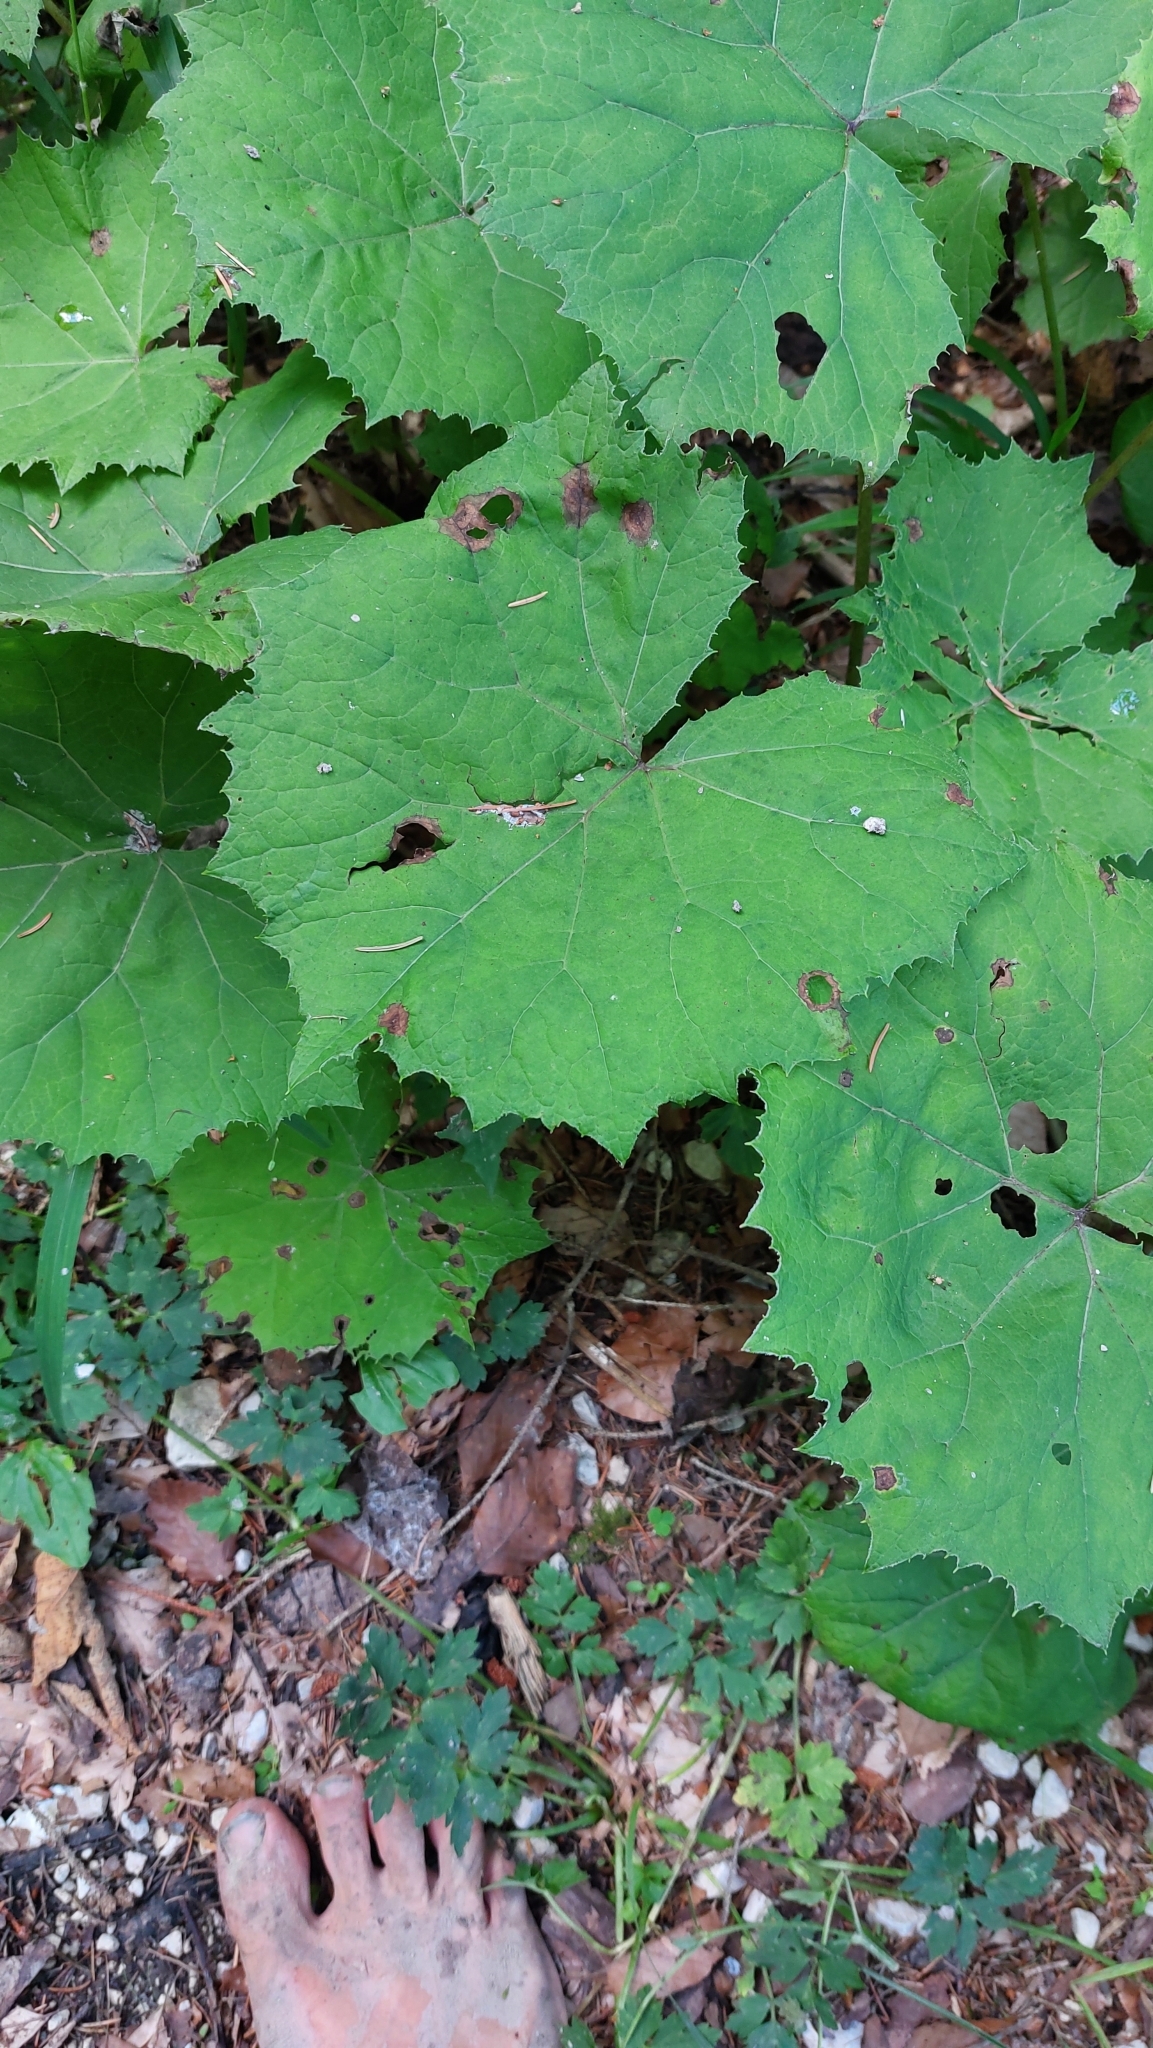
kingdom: Plantae
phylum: Tracheophyta
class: Magnoliopsida
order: Asterales
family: Asteraceae
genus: Petasites
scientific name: Petasites albus
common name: White butterbur
